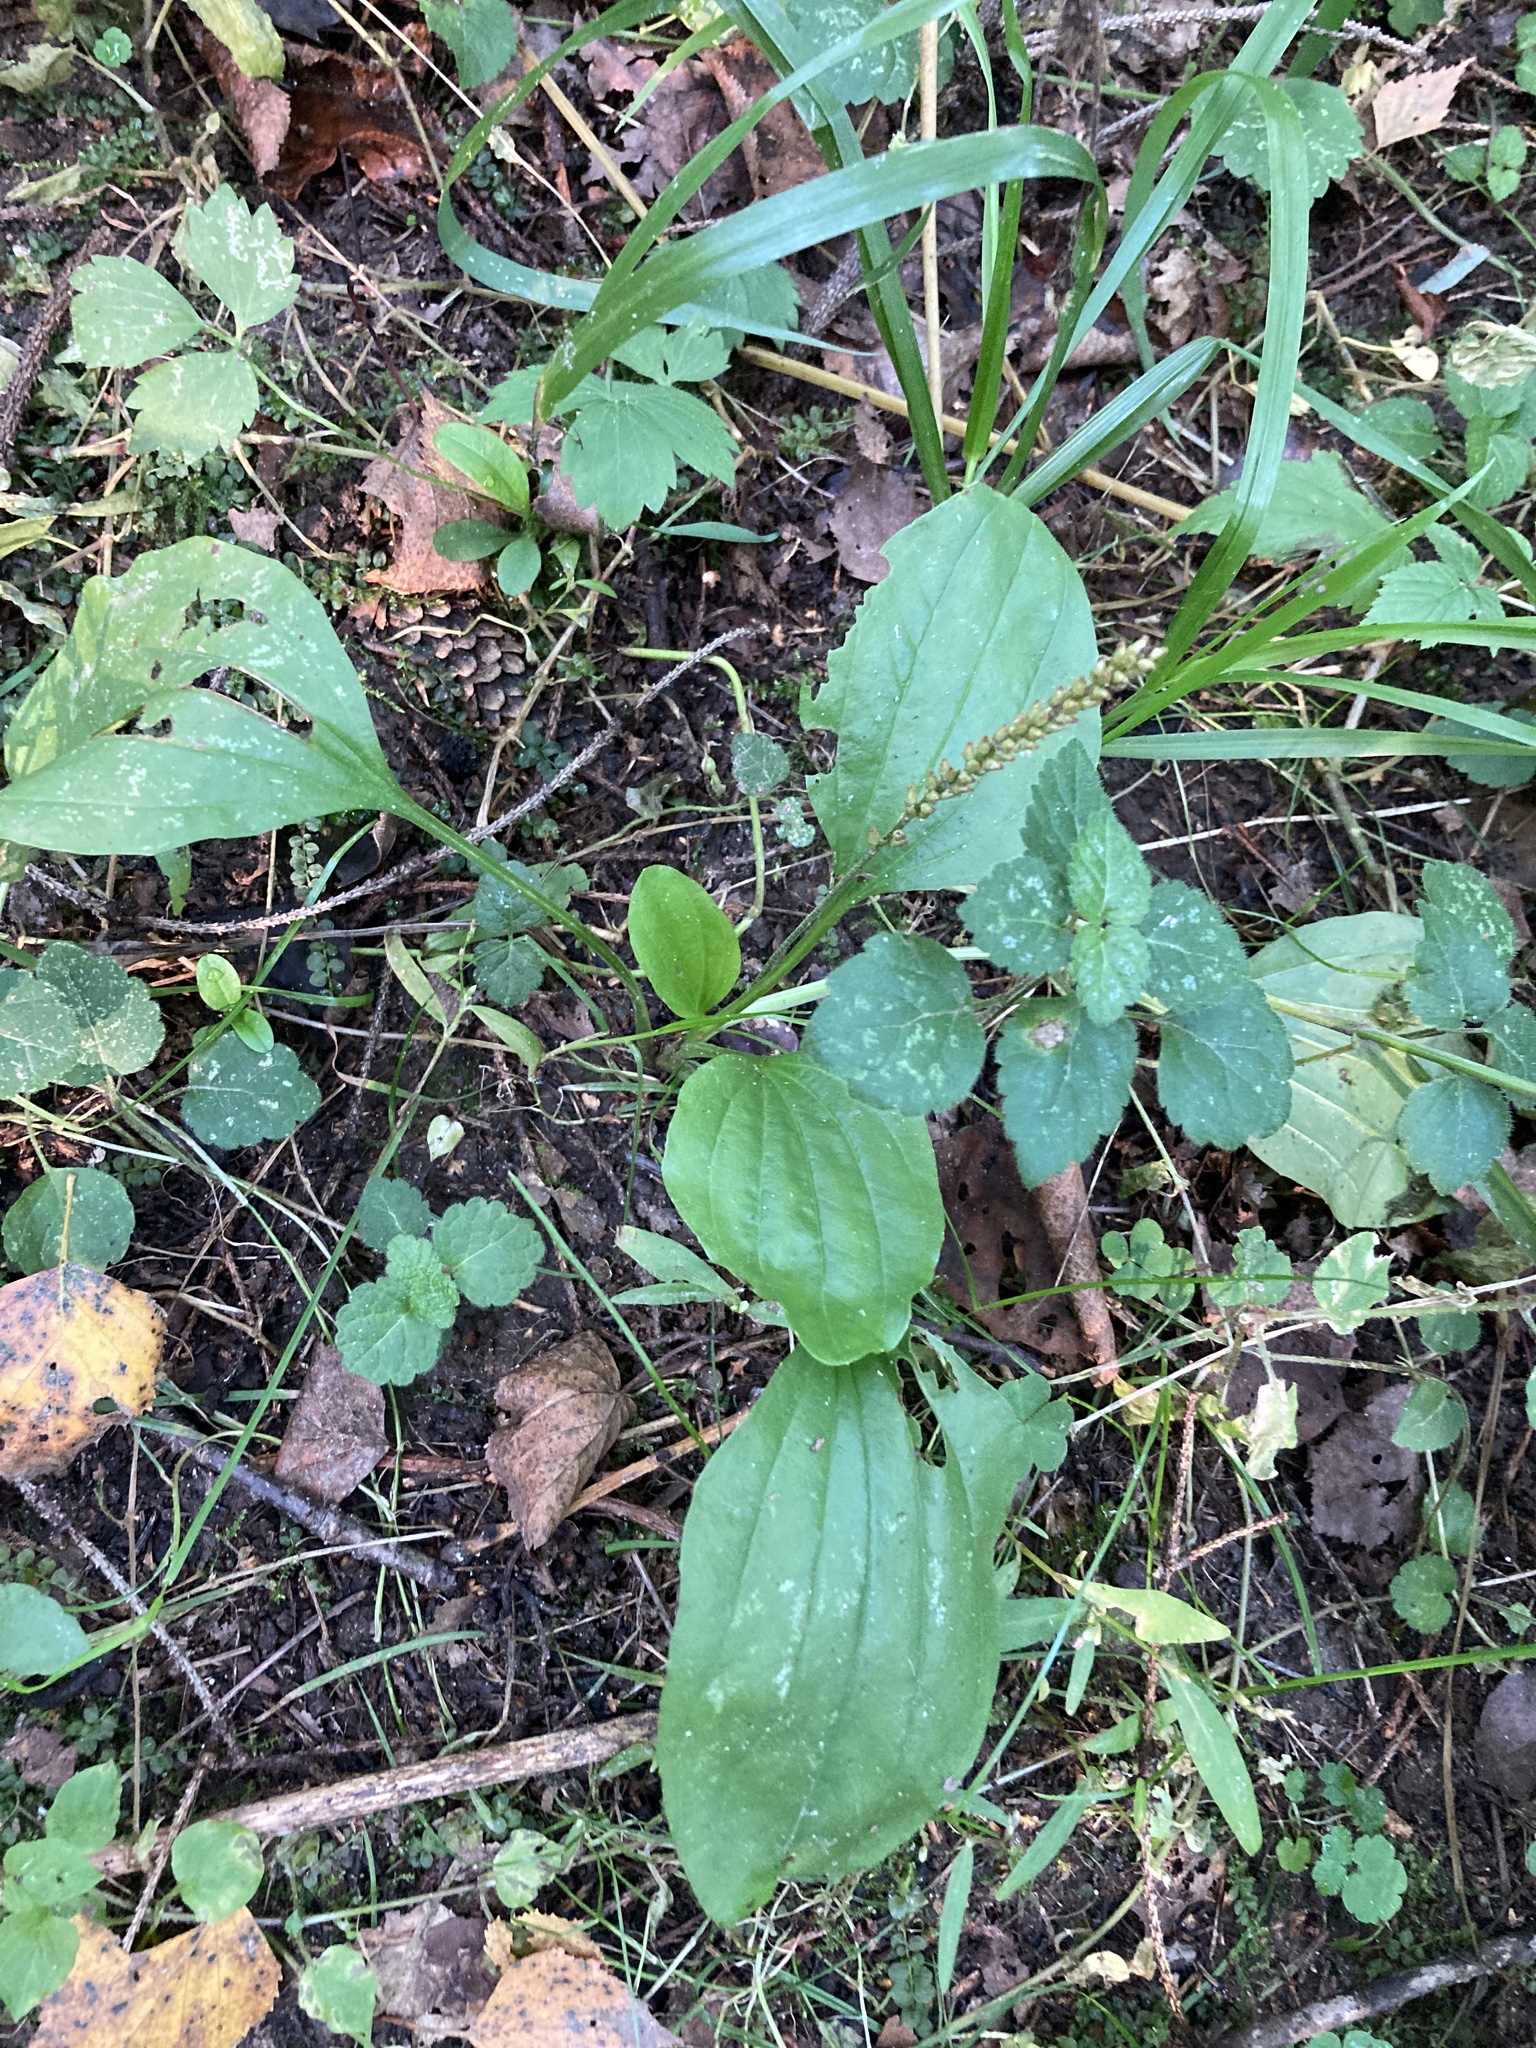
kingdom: Plantae
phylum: Tracheophyta
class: Magnoliopsida
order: Lamiales
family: Plantaginaceae
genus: Plantago
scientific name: Plantago major
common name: Common plantain
